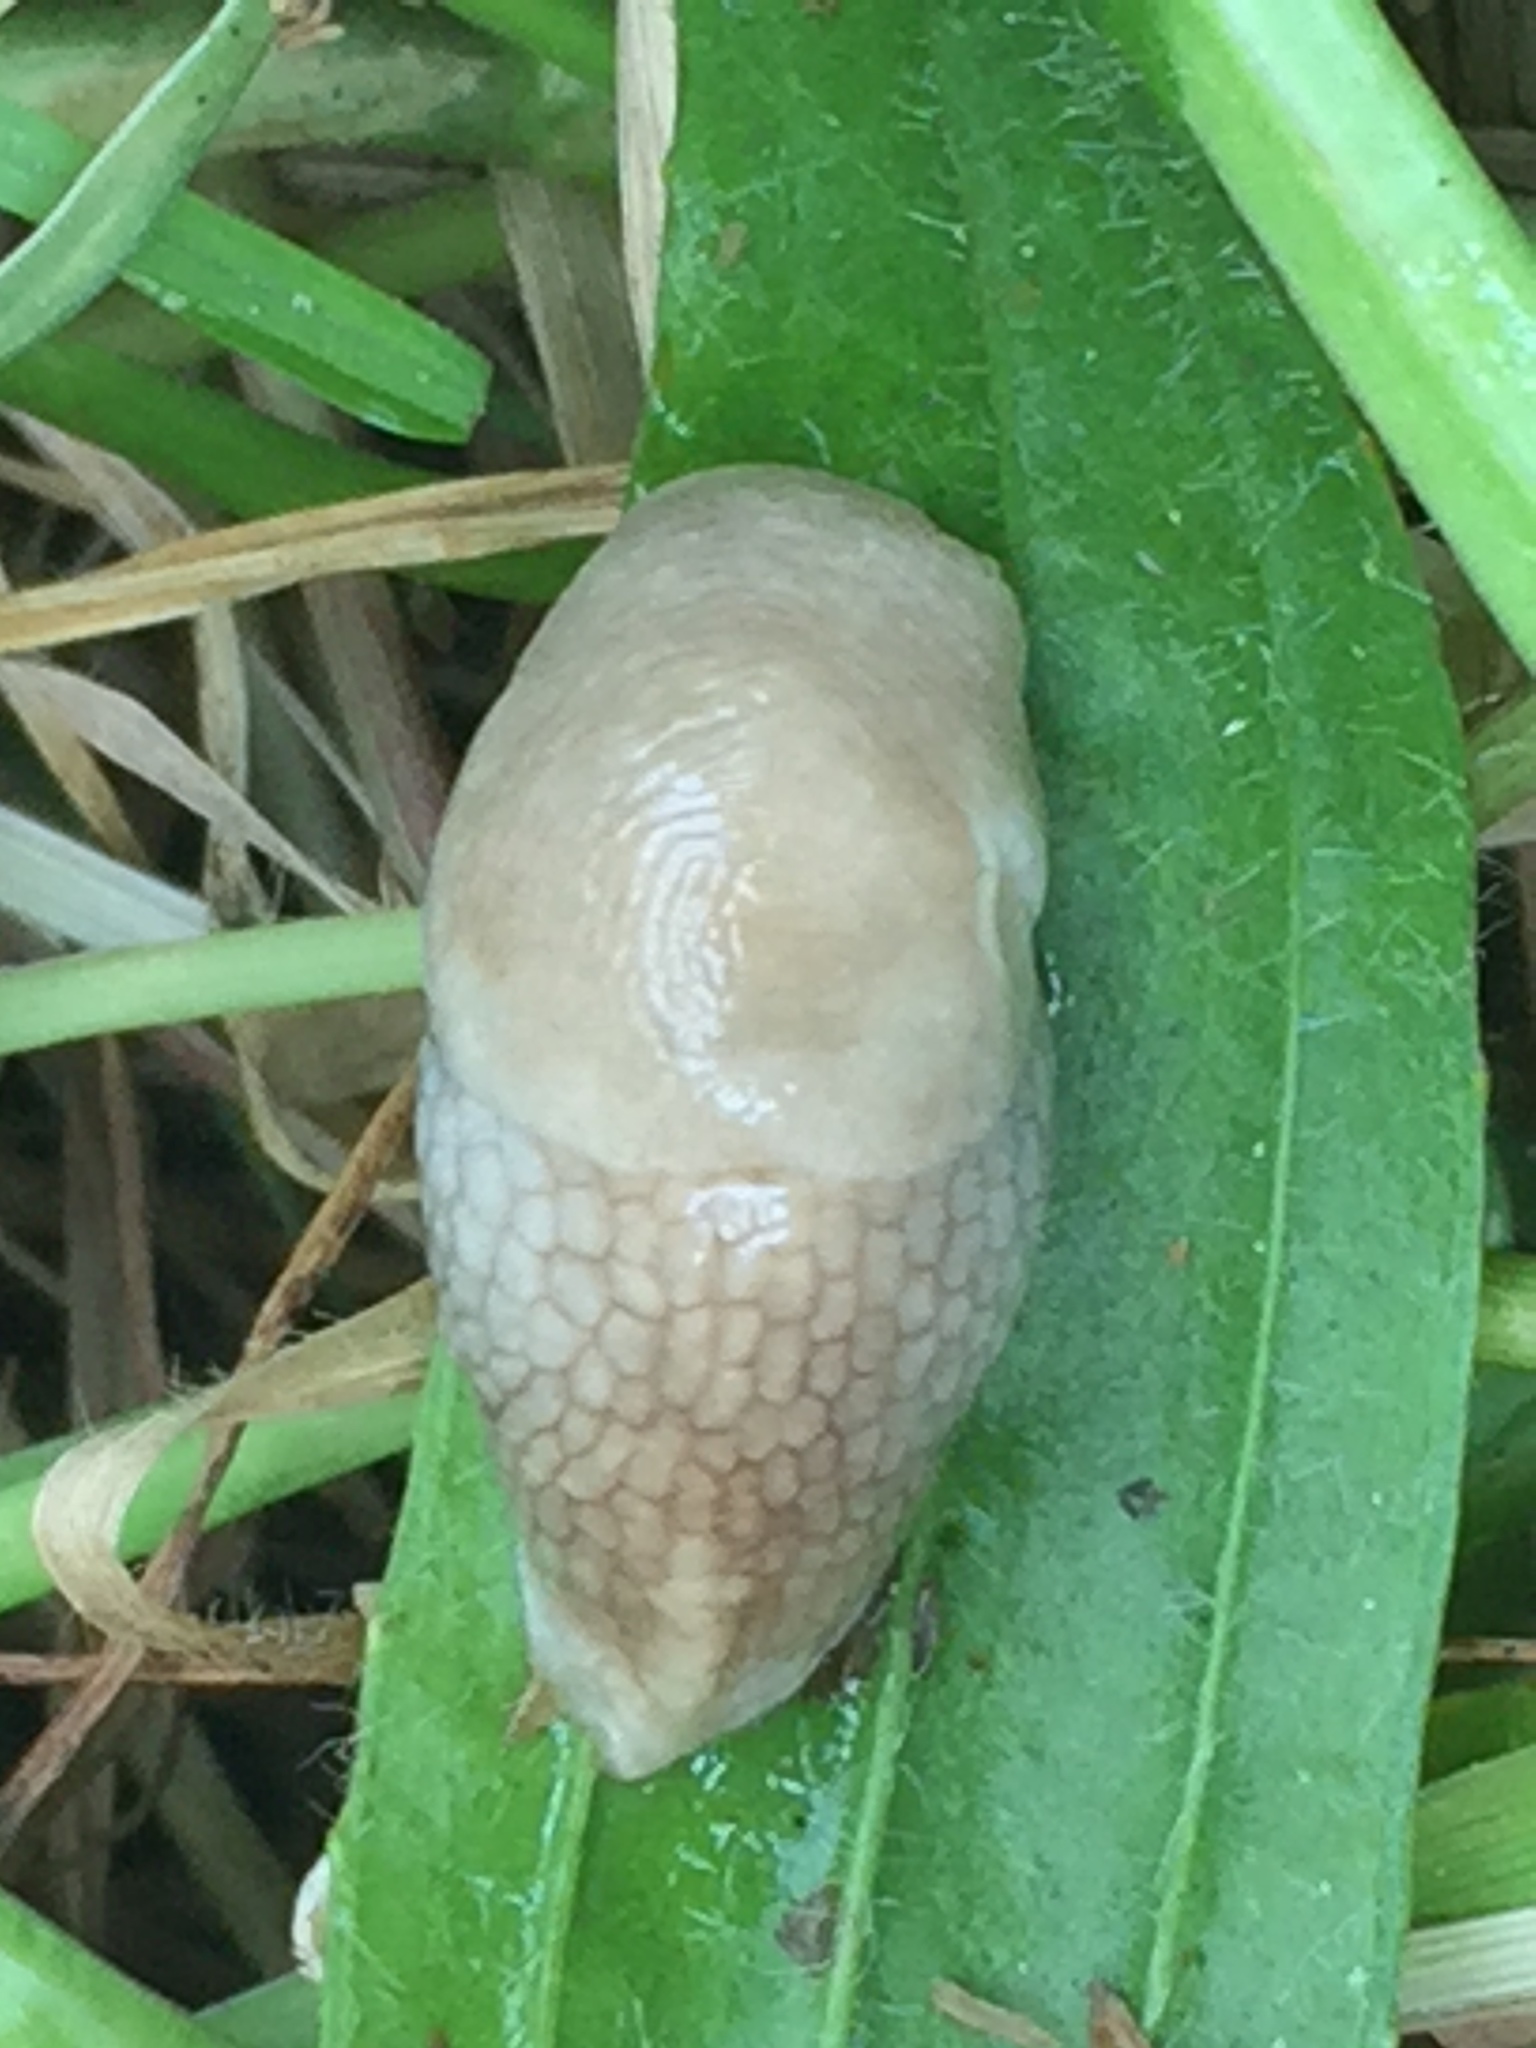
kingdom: Animalia
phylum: Mollusca
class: Gastropoda
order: Stylommatophora
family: Agriolimacidae
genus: Deroceras
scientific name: Deroceras reticulatum
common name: Gray field slug
